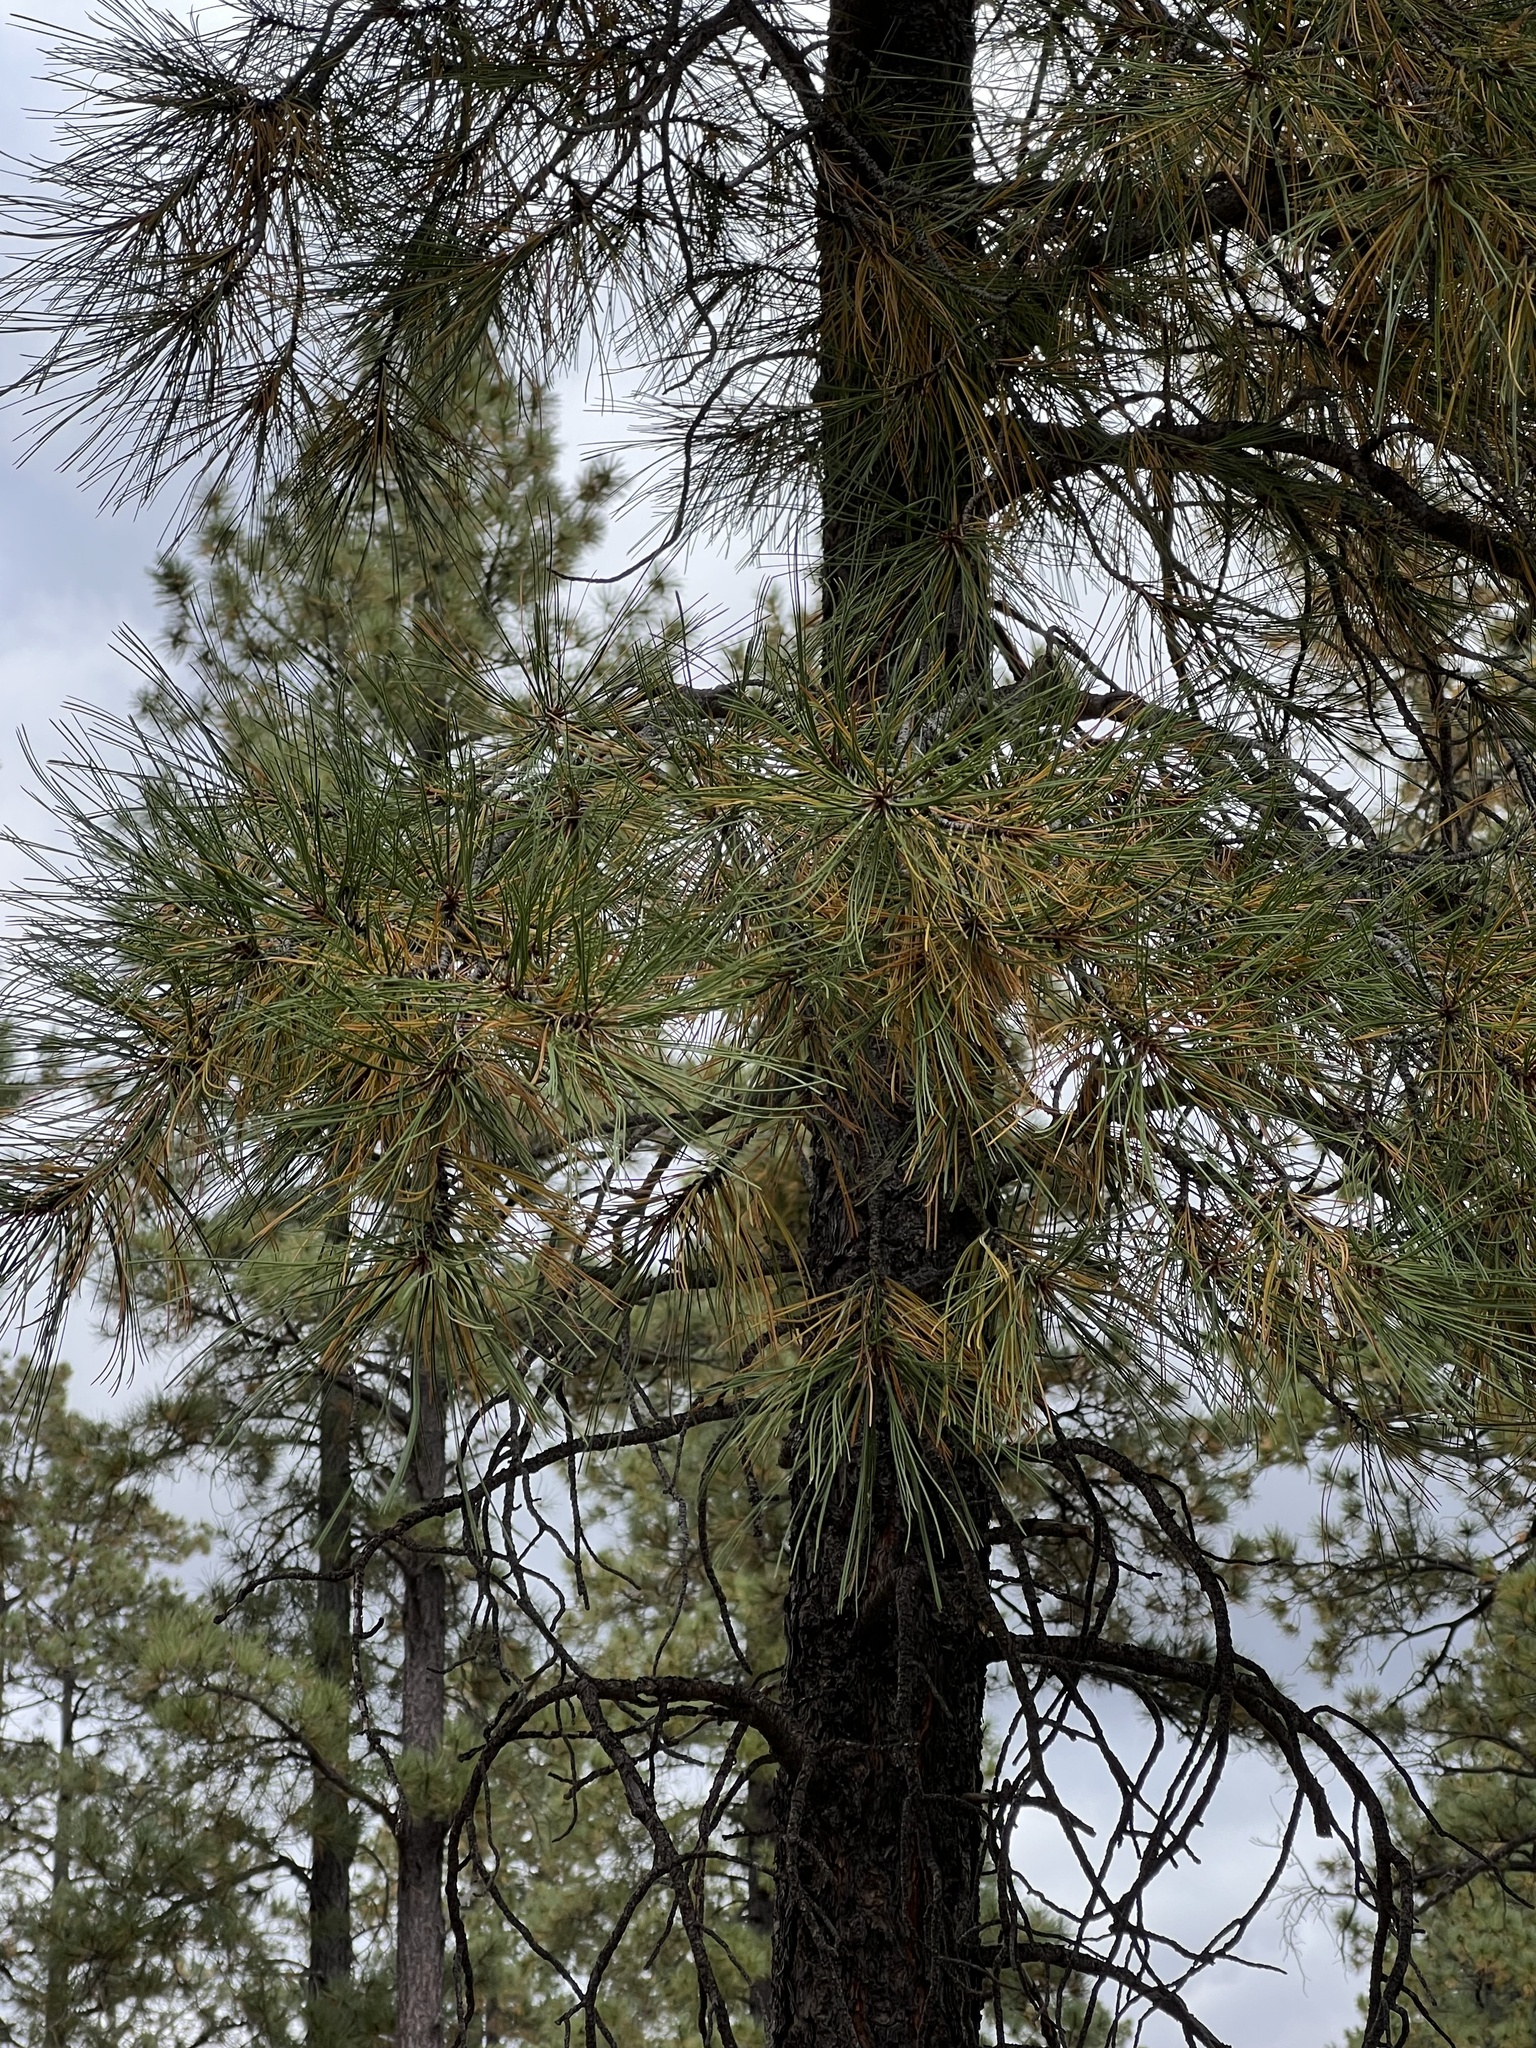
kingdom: Plantae
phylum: Tracheophyta
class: Pinopsida
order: Pinales
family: Pinaceae
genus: Pinus
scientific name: Pinus ponderosa
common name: Western yellow-pine
